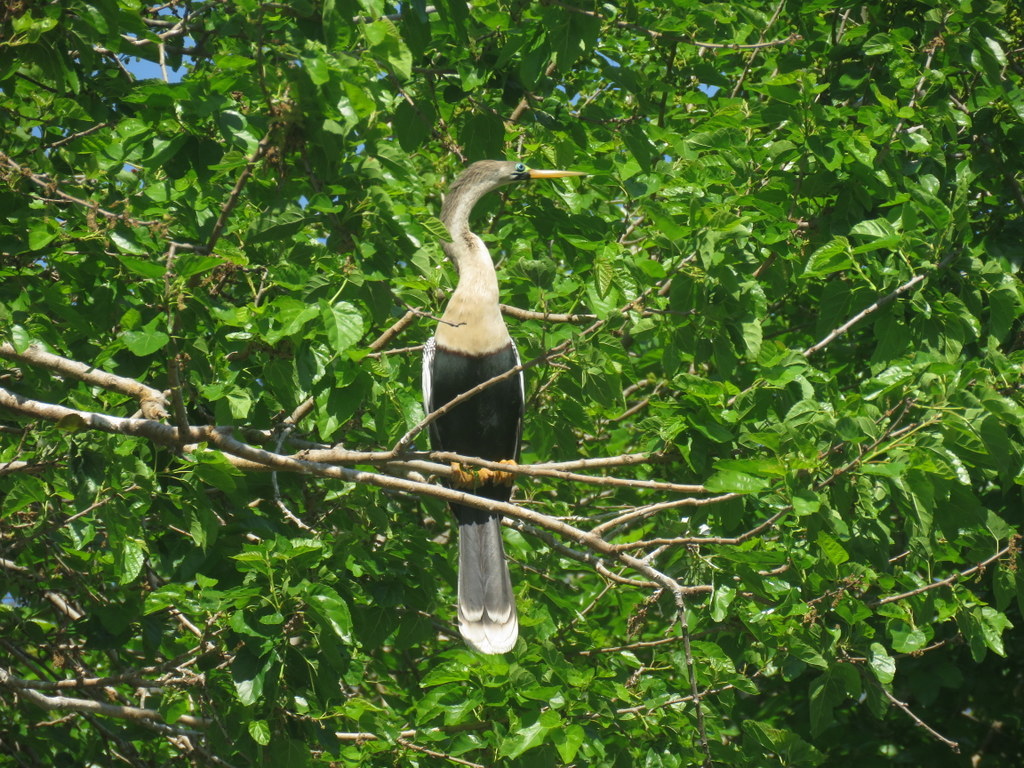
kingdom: Animalia
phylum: Chordata
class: Aves
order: Suliformes
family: Anhingidae
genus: Anhinga
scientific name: Anhinga anhinga
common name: Anhinga
